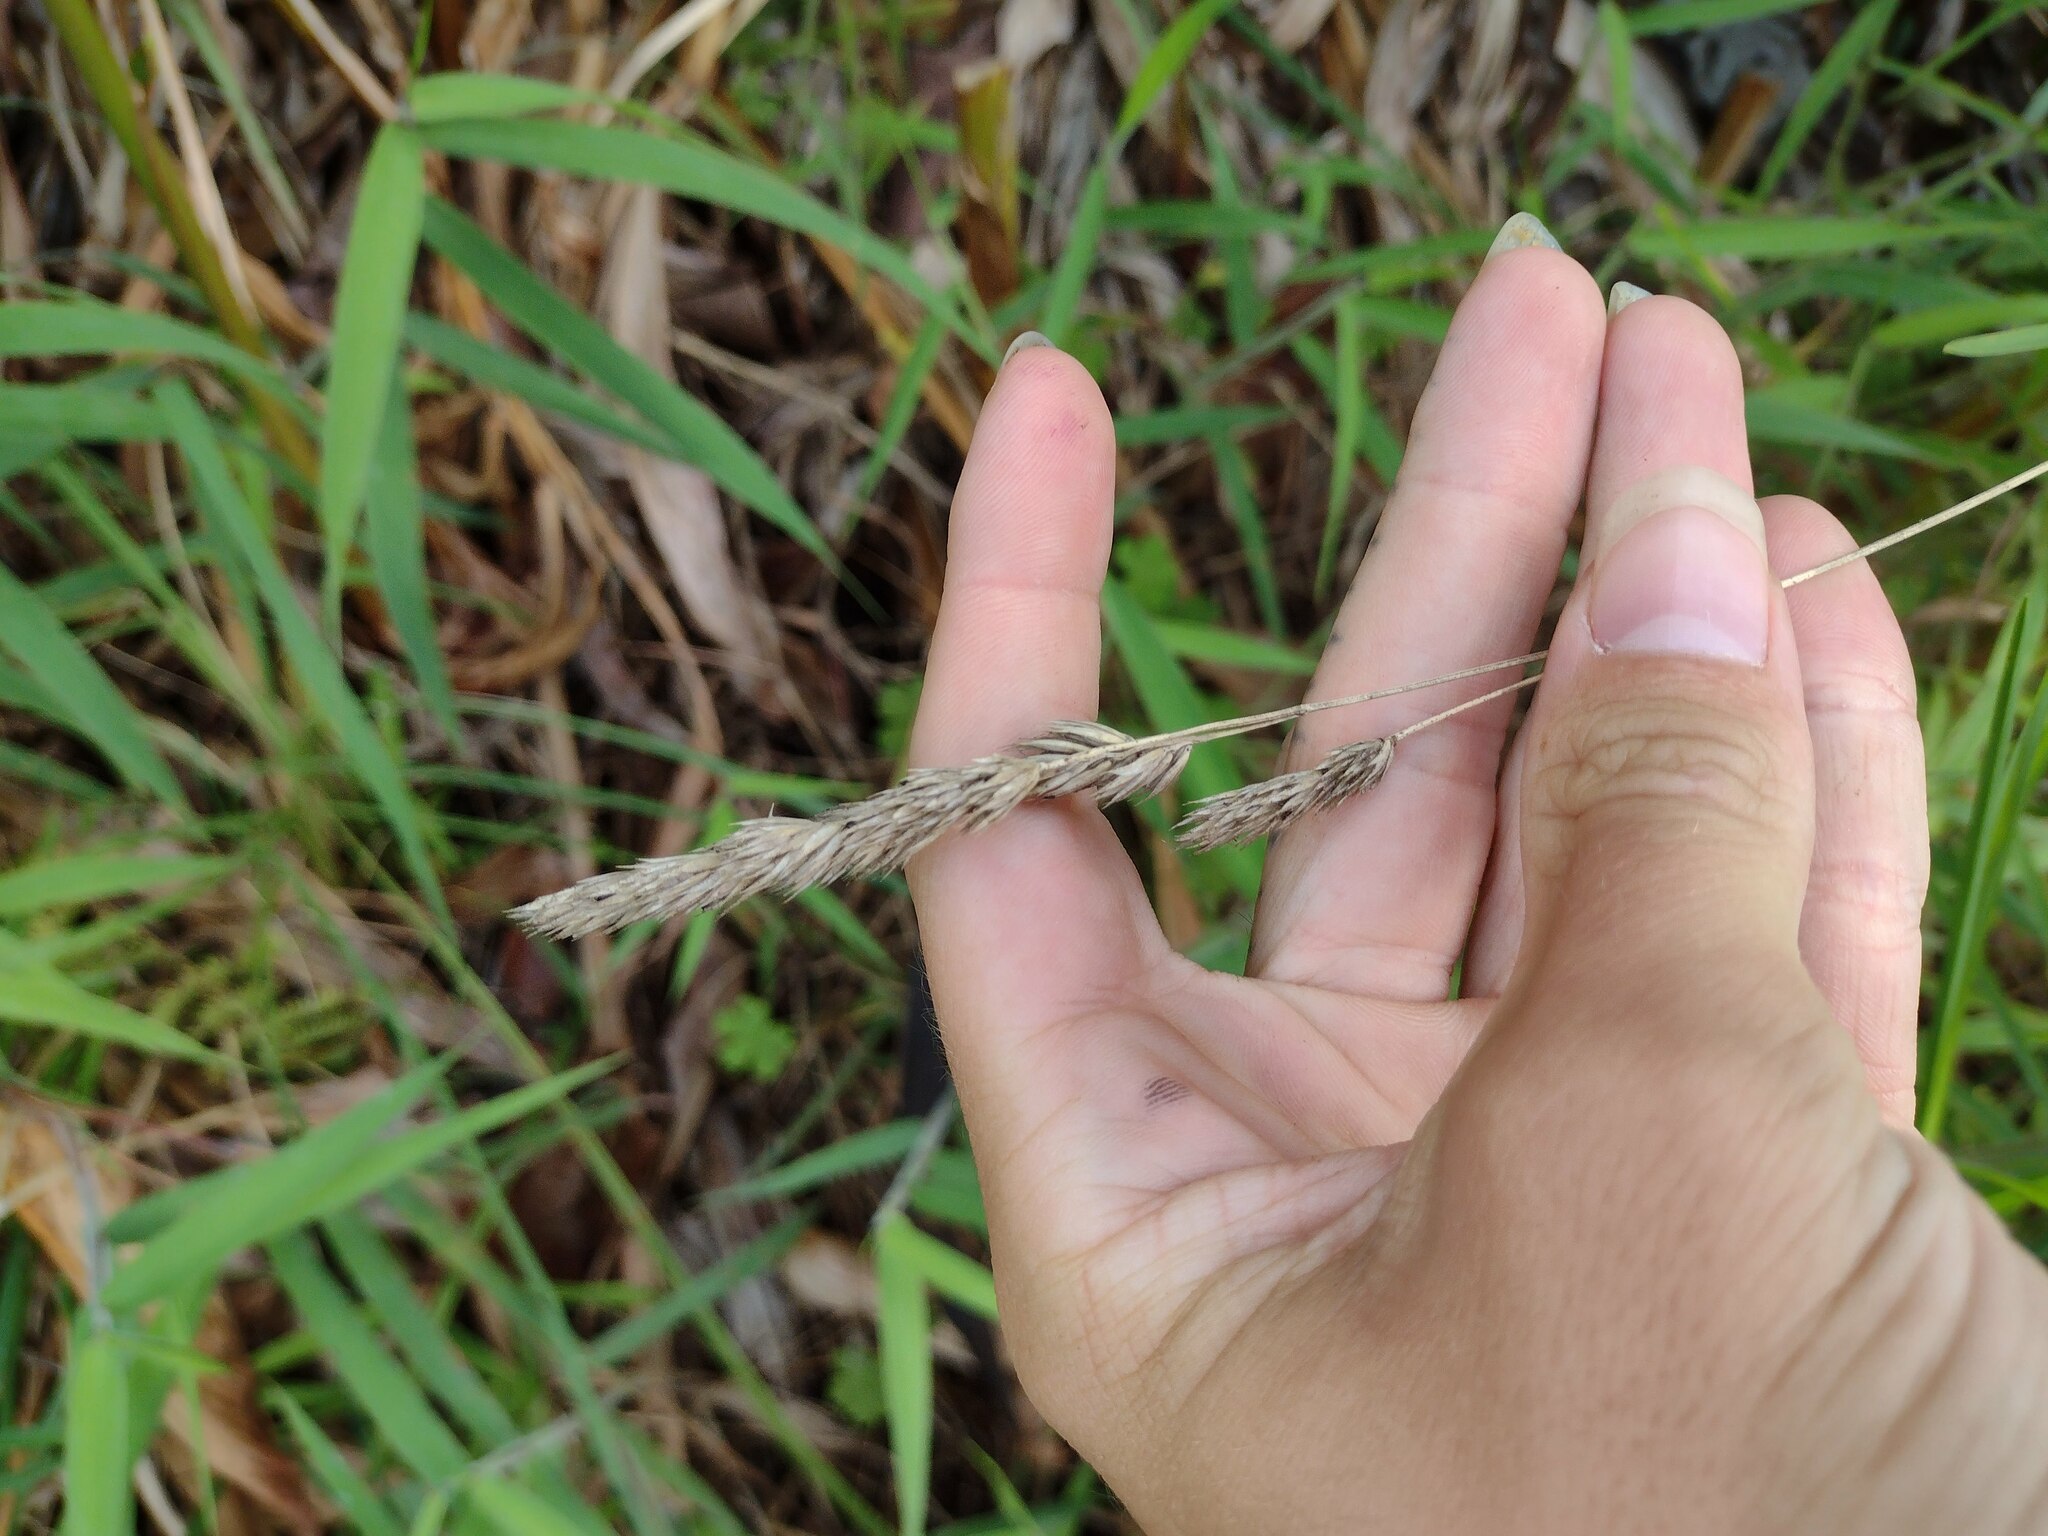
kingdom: Plantae
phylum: Tracheophyta
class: Liliopsida
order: Poales
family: Poaceae
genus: Dactylis
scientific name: Dactylis glomerata
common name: Orchardgrass
